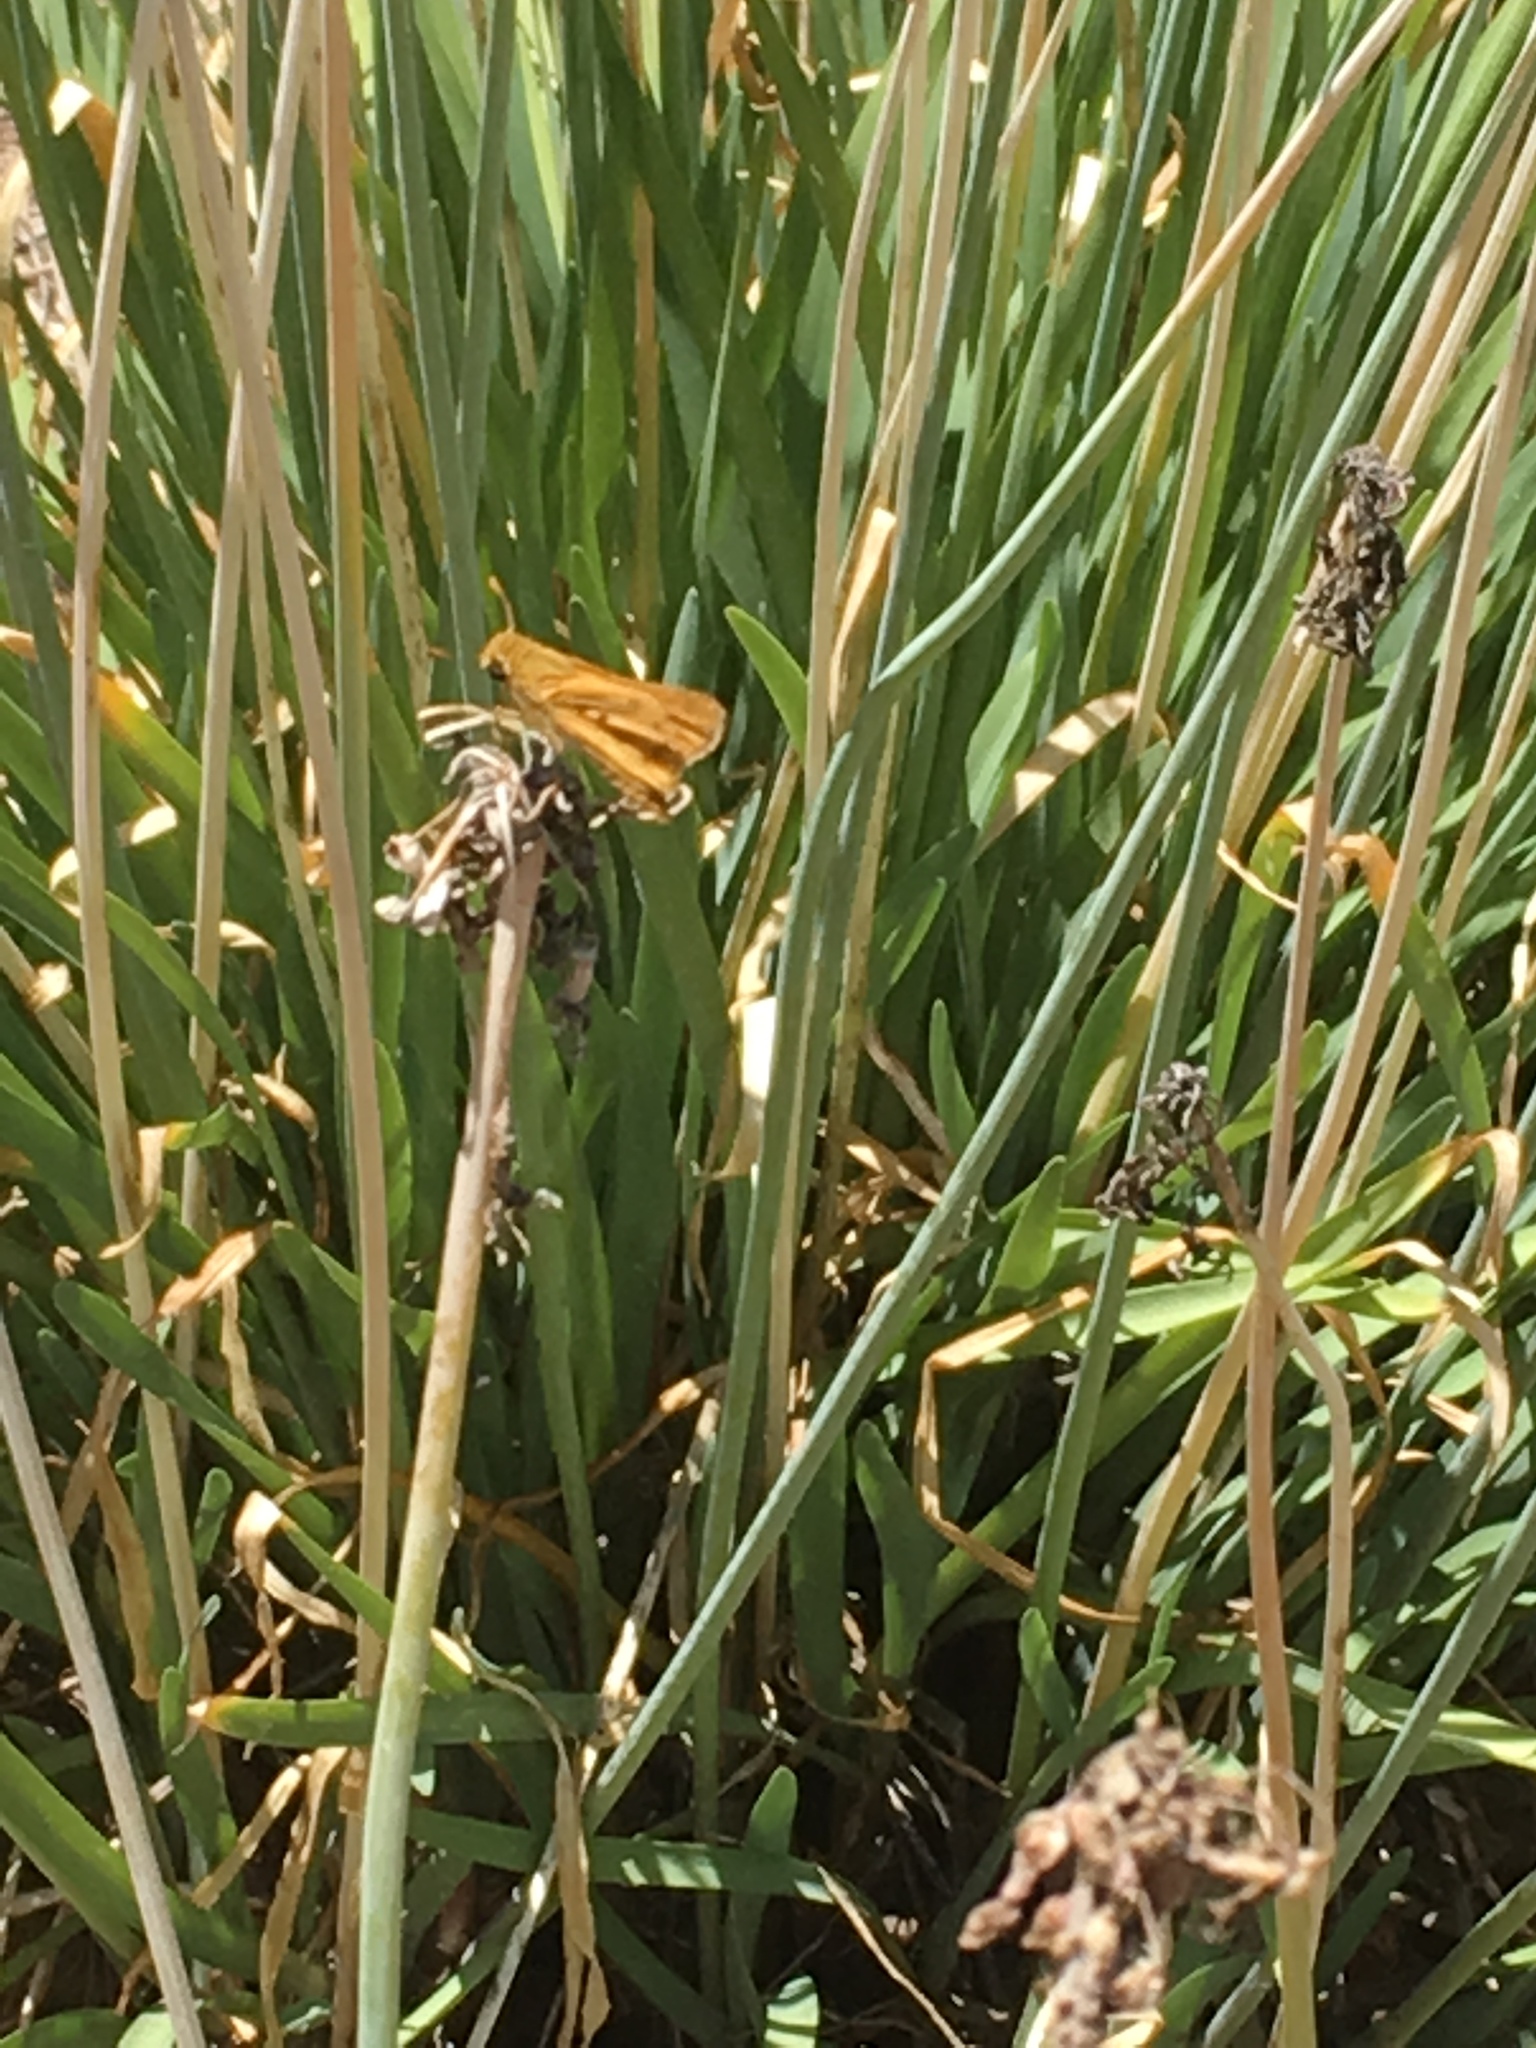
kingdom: Animalia
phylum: Arthropoda
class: Insecta
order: Lepidoptera
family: Hesperiidae
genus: Hylephila
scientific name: Hylephila phyleus
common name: Fiery skipper
